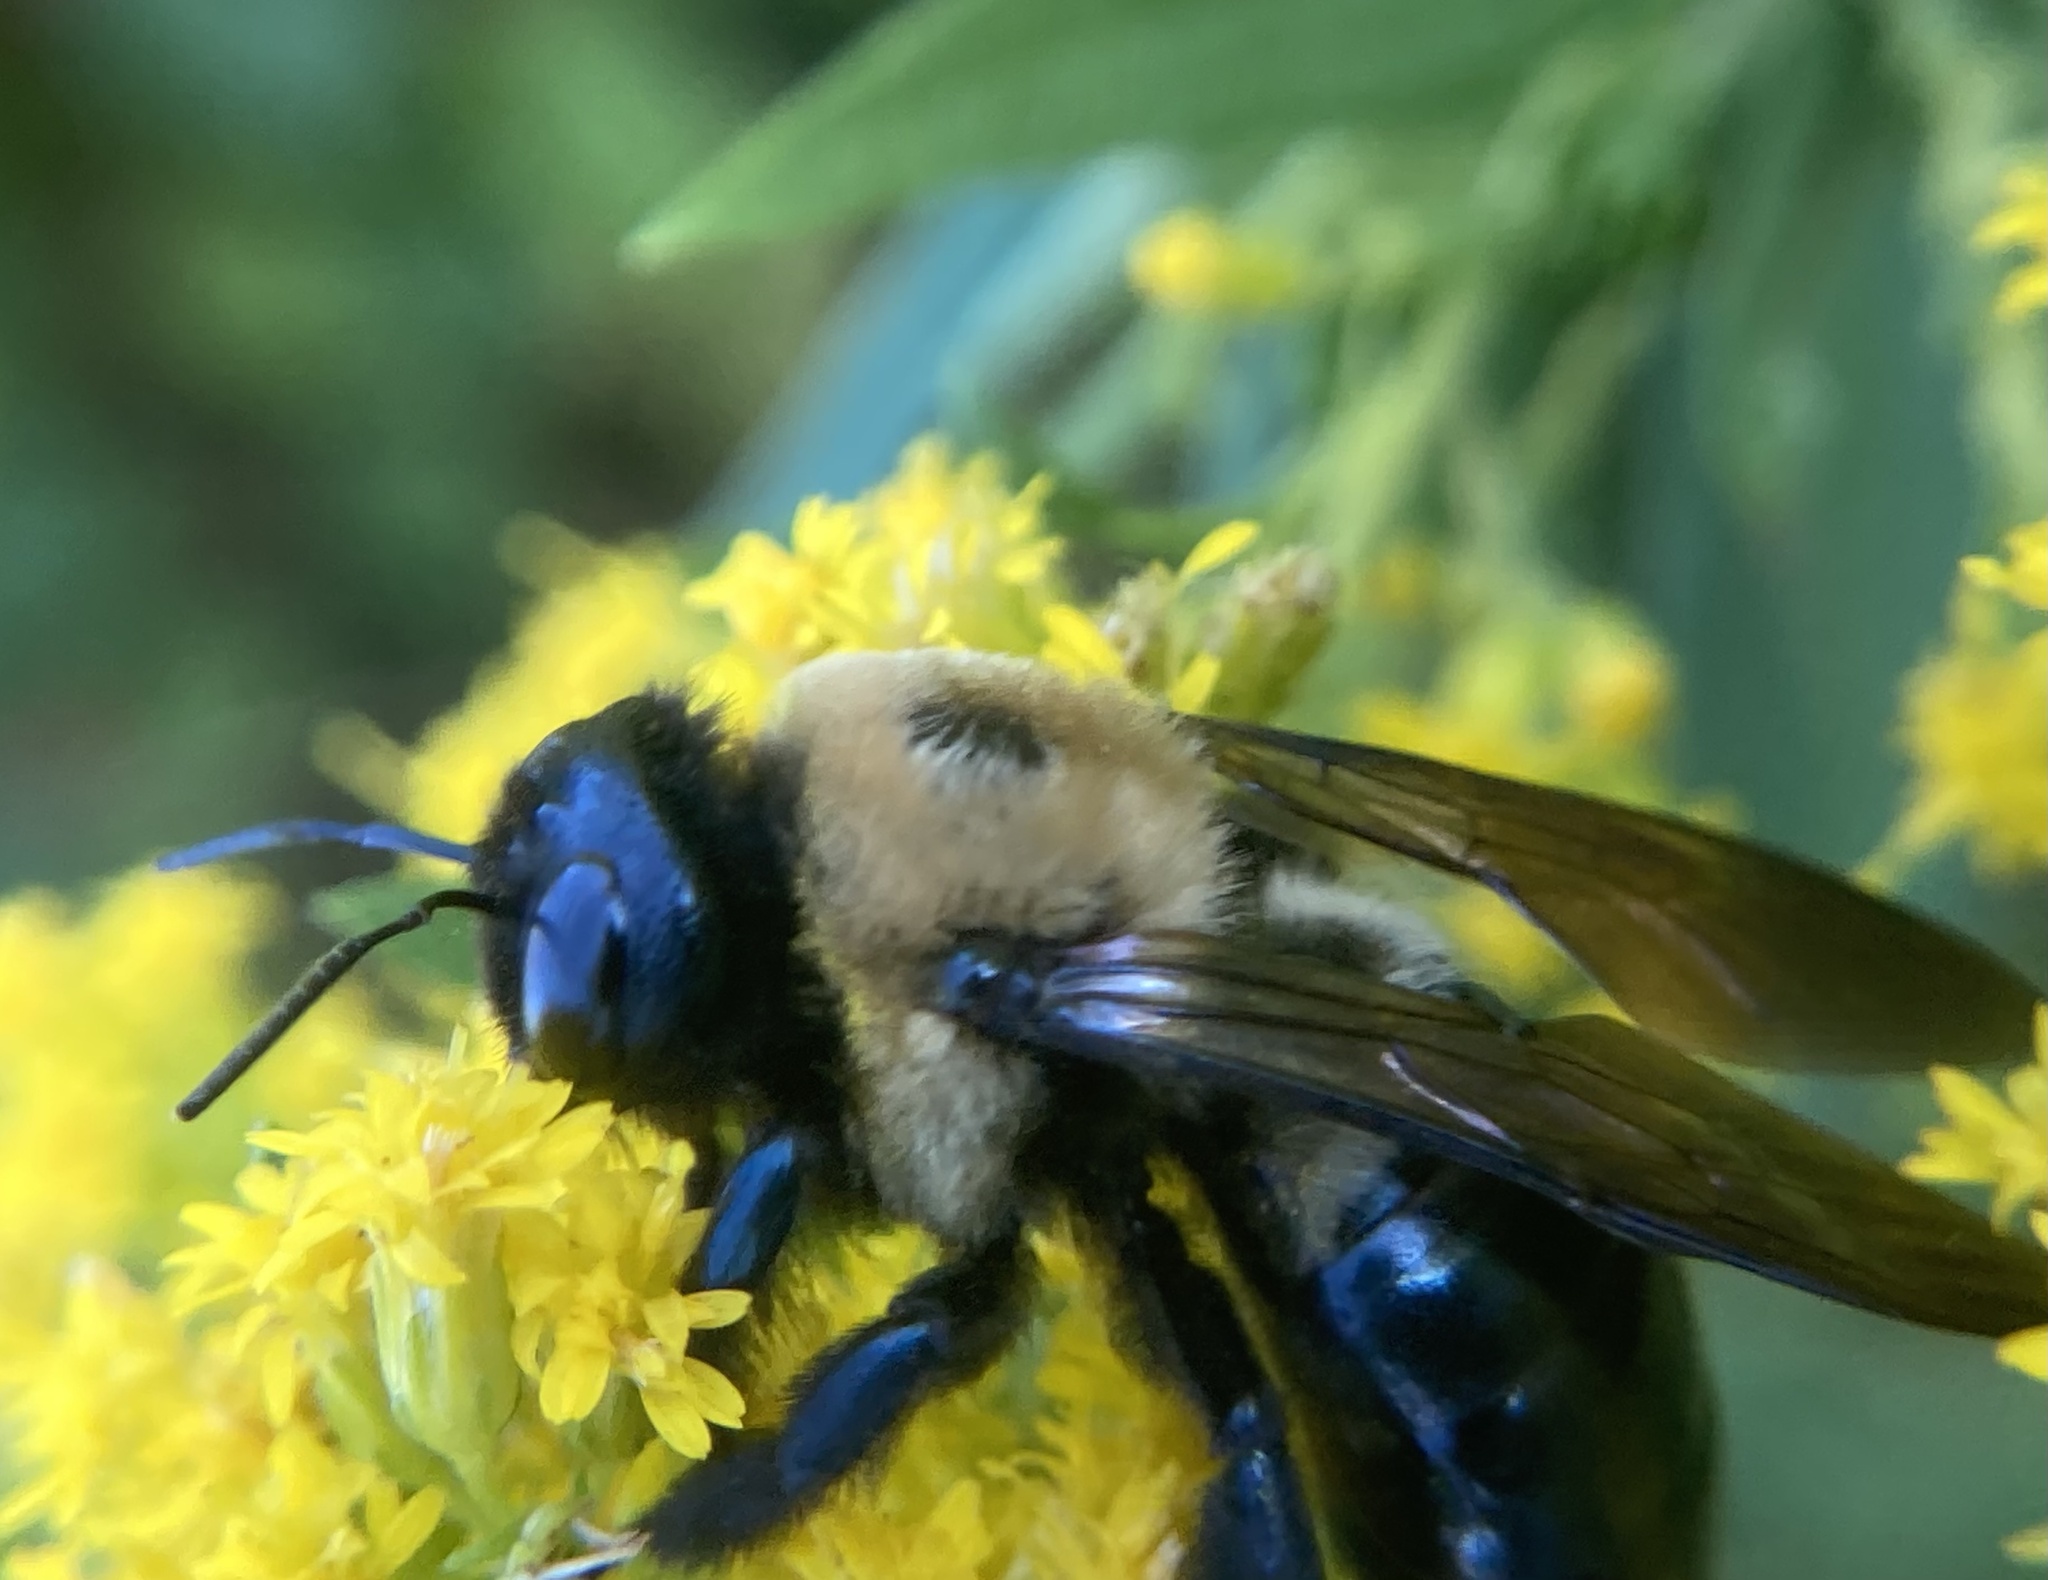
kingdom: Animalia
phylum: Arthropoda
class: Insecta
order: Hymenoptera
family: Apidae
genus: Xylocopa
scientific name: Xylocopa virginica
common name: Carpenter bee
